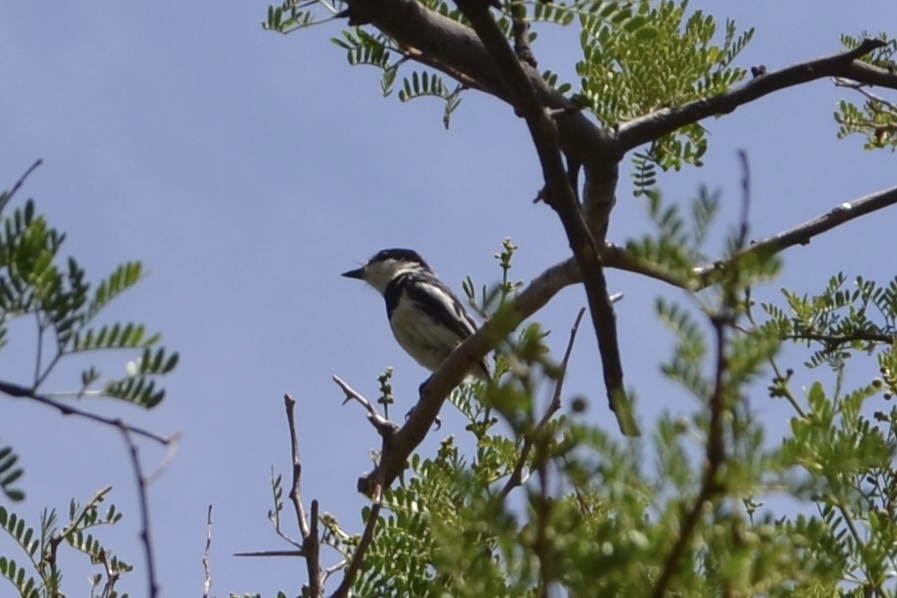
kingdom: Animalia
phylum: Chordata
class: Aves
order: Passeriformes
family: Platysteiridae
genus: Batis
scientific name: Batis pririt
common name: Pririt batis
